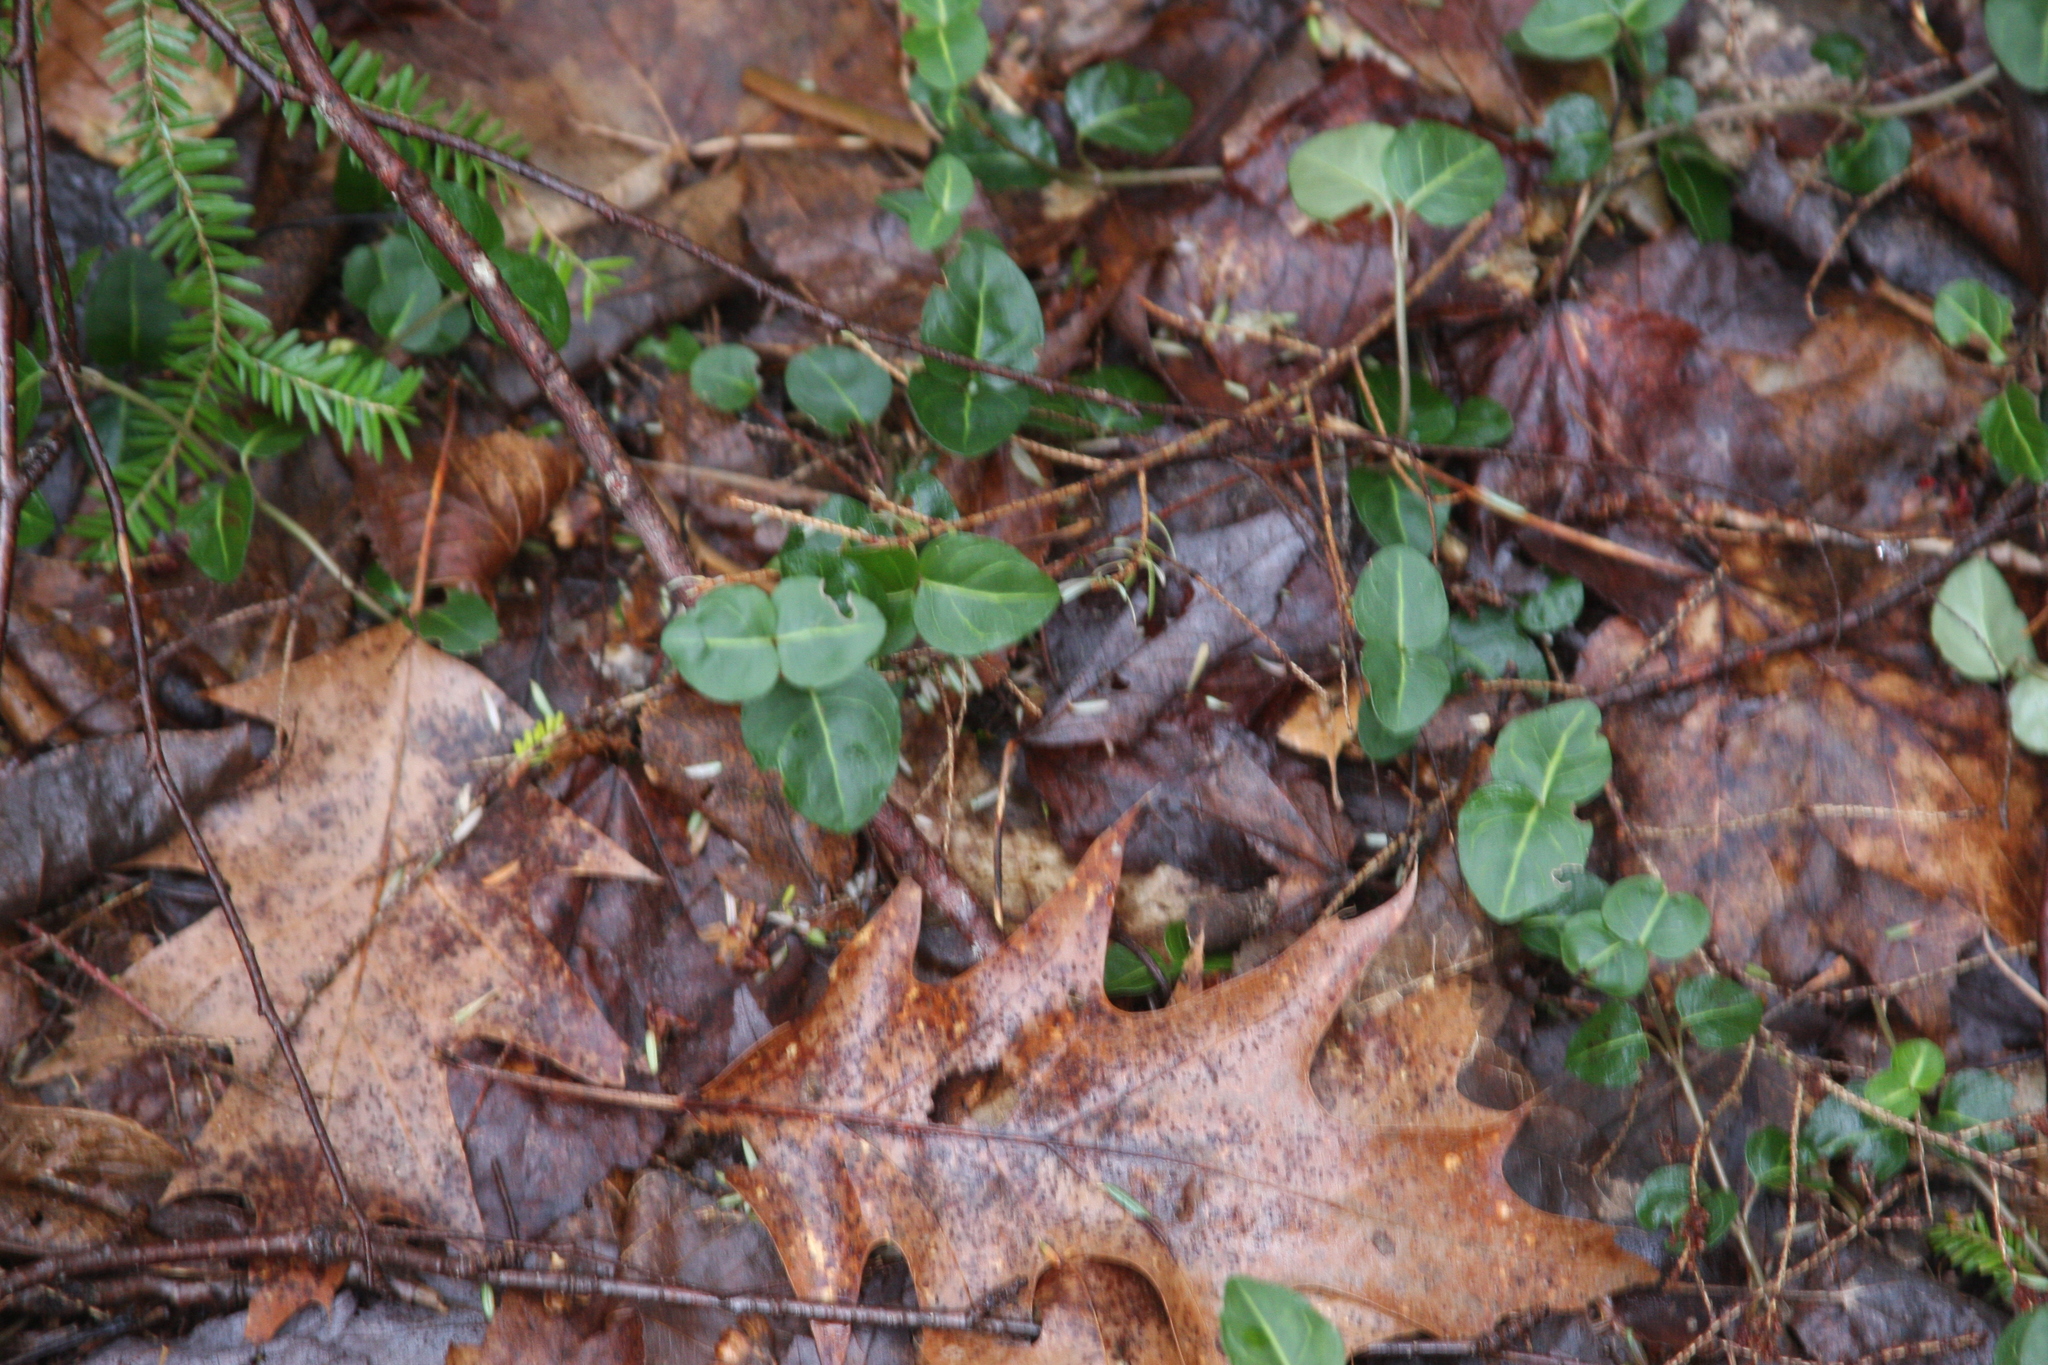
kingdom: Plantae
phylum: Tracheophyta
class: Magnoliopsida
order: Gentianales
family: Rubiaceae
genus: Mitchella
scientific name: Mitchella repens
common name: Partridge-berry
